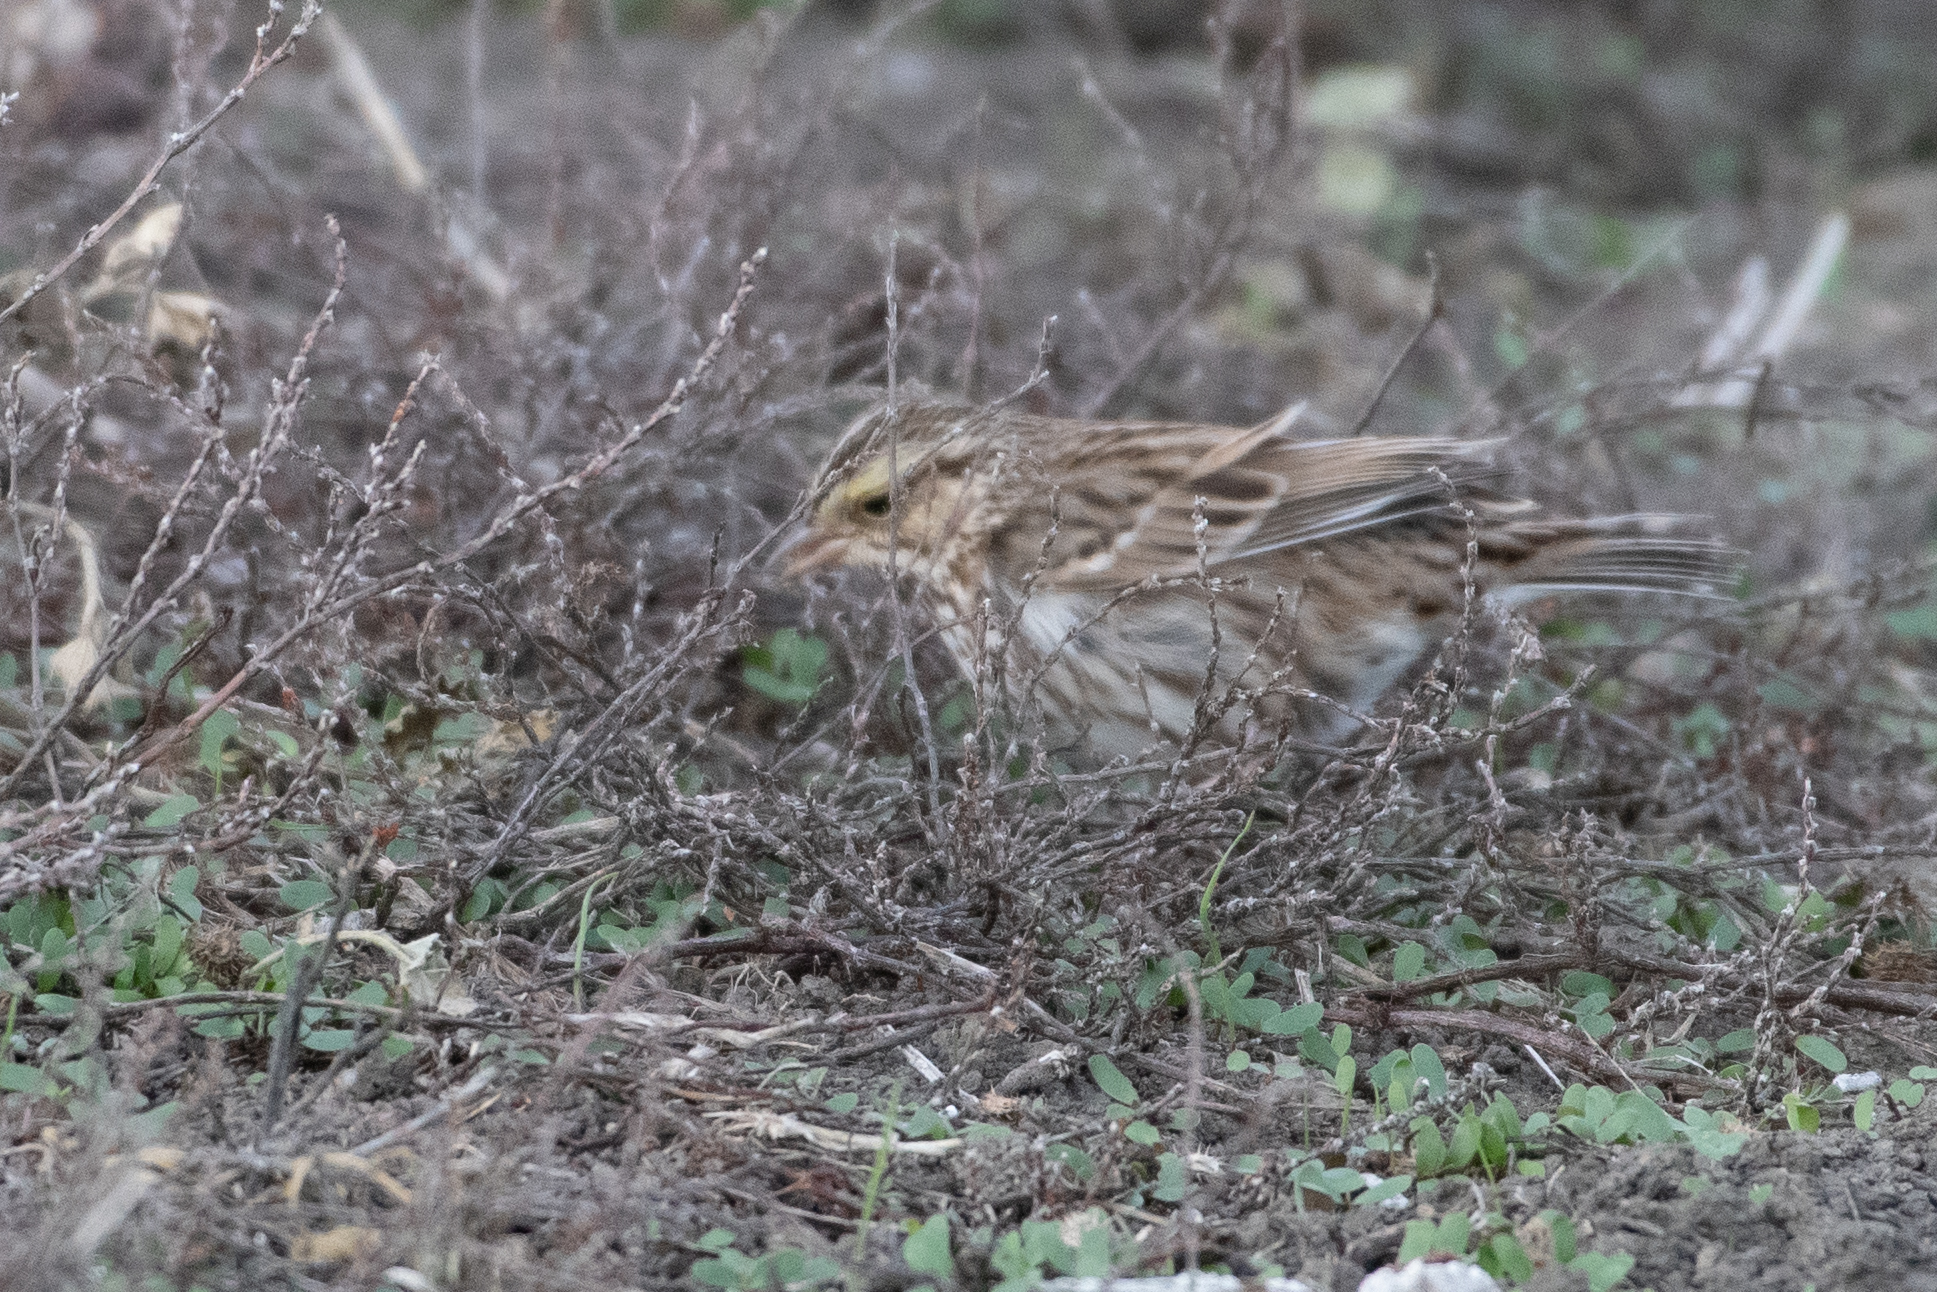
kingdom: Animalia
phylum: Chordata
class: Aves
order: Passeriformes
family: Passerellidae
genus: Passerculus
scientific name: Passerculus sandwichensis
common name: Savannah sparrow
